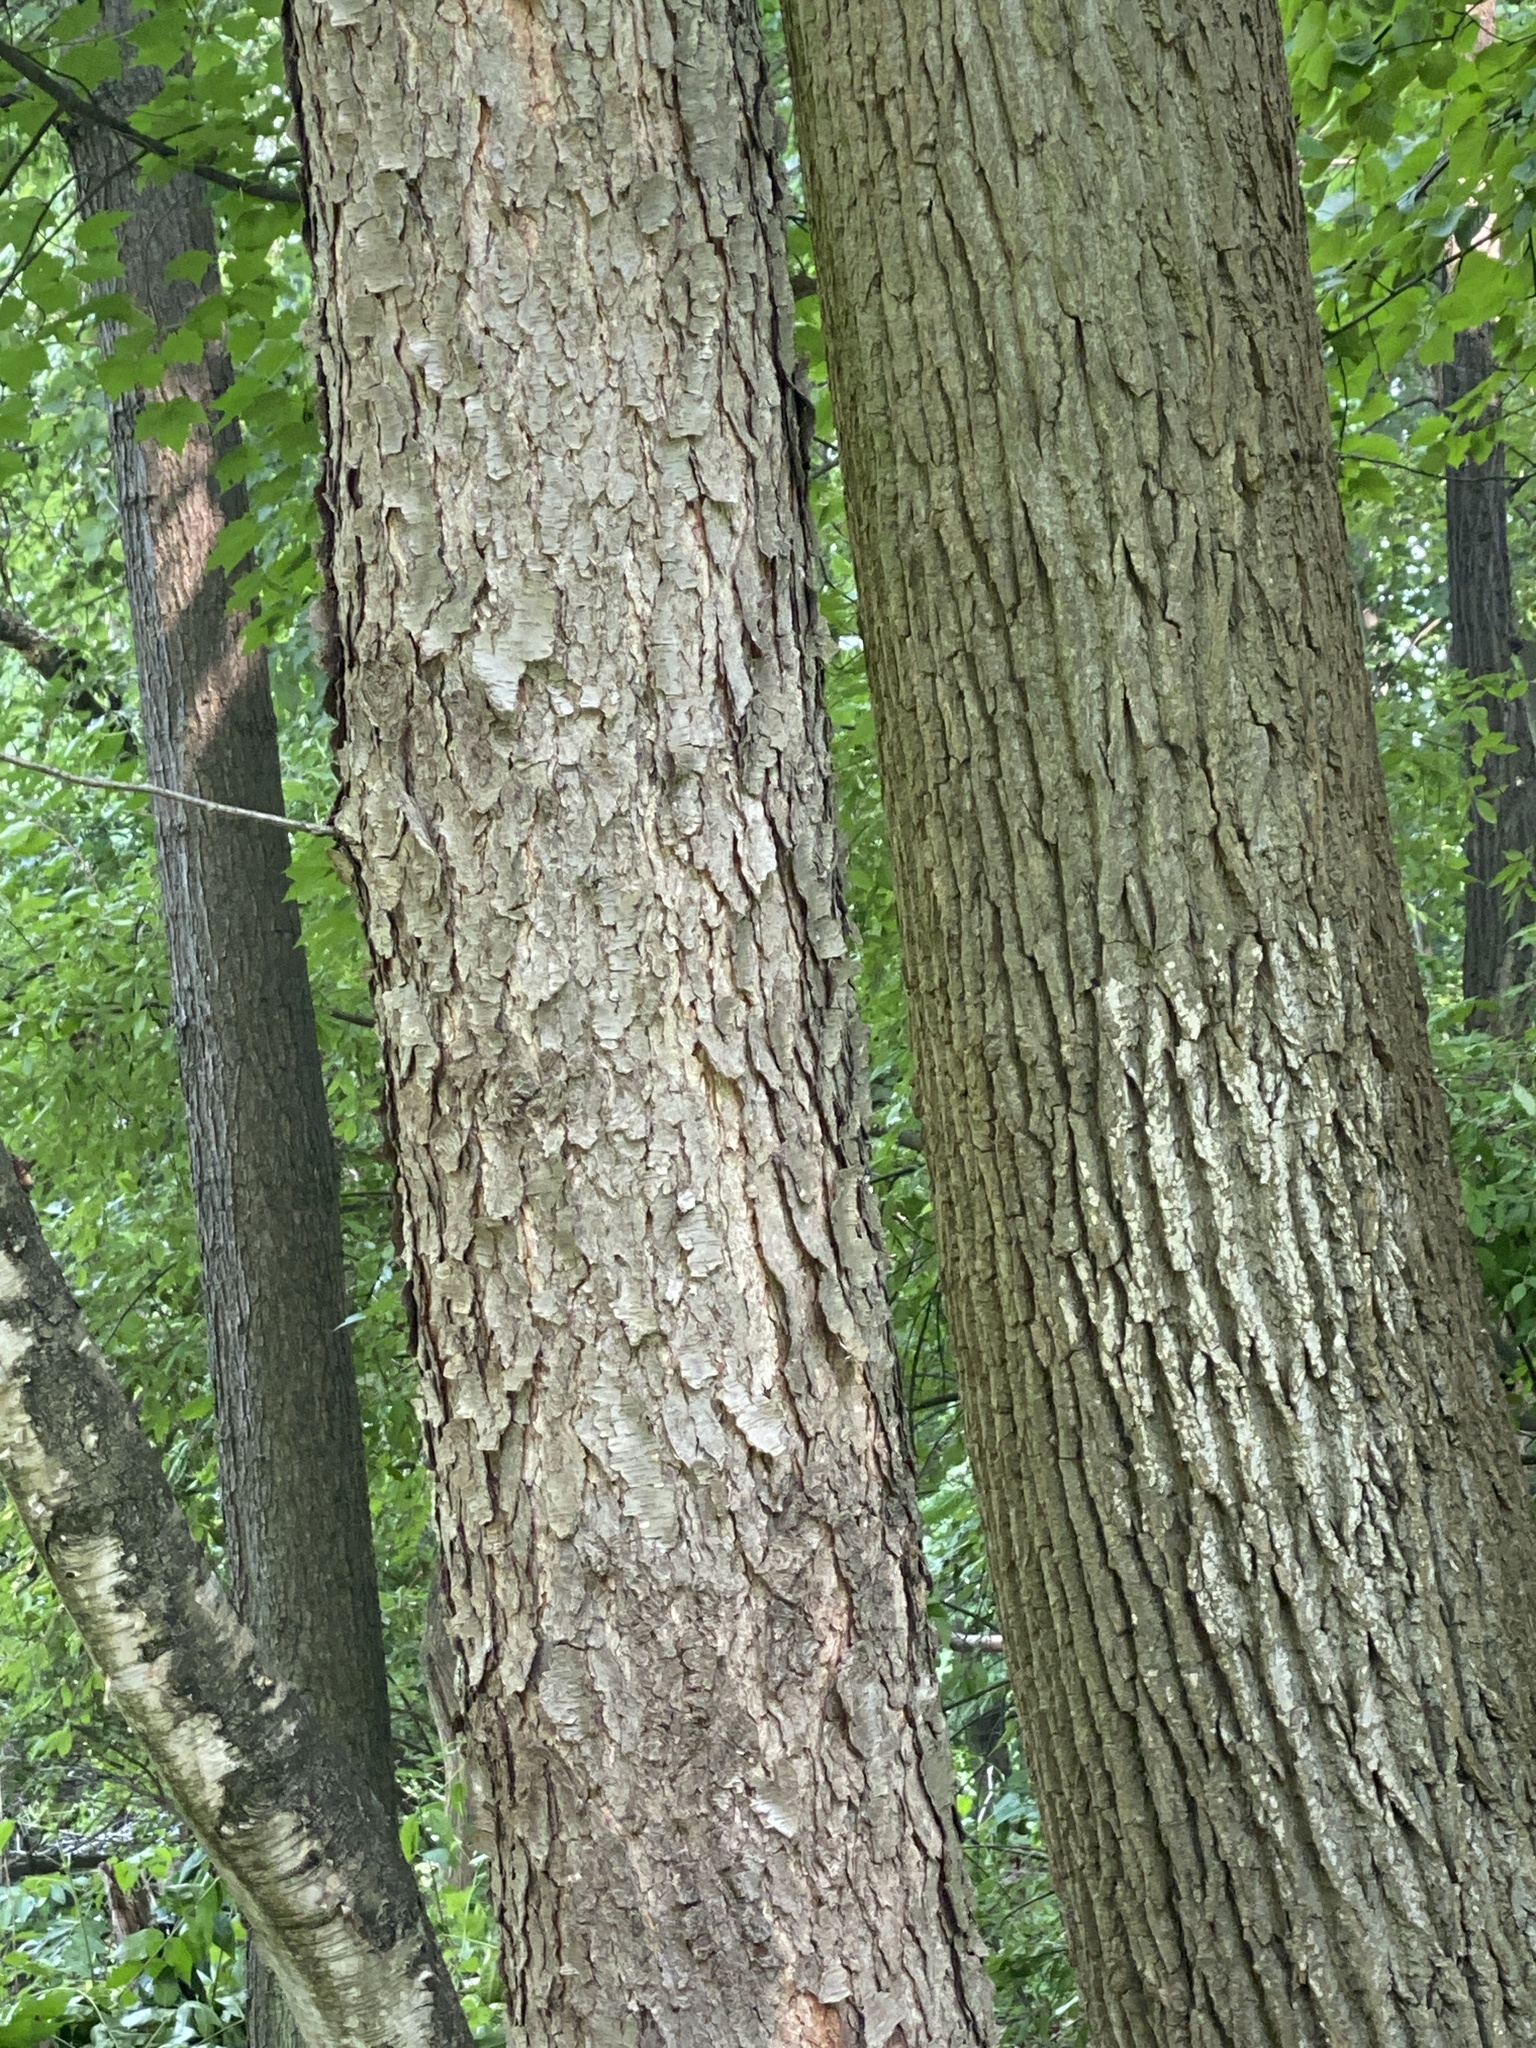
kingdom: Plantae
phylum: Tracheophyta
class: Magnoliopsida
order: Rosales
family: Rosaceae
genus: Prunus
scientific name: Prunus serotina
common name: Black cherry
